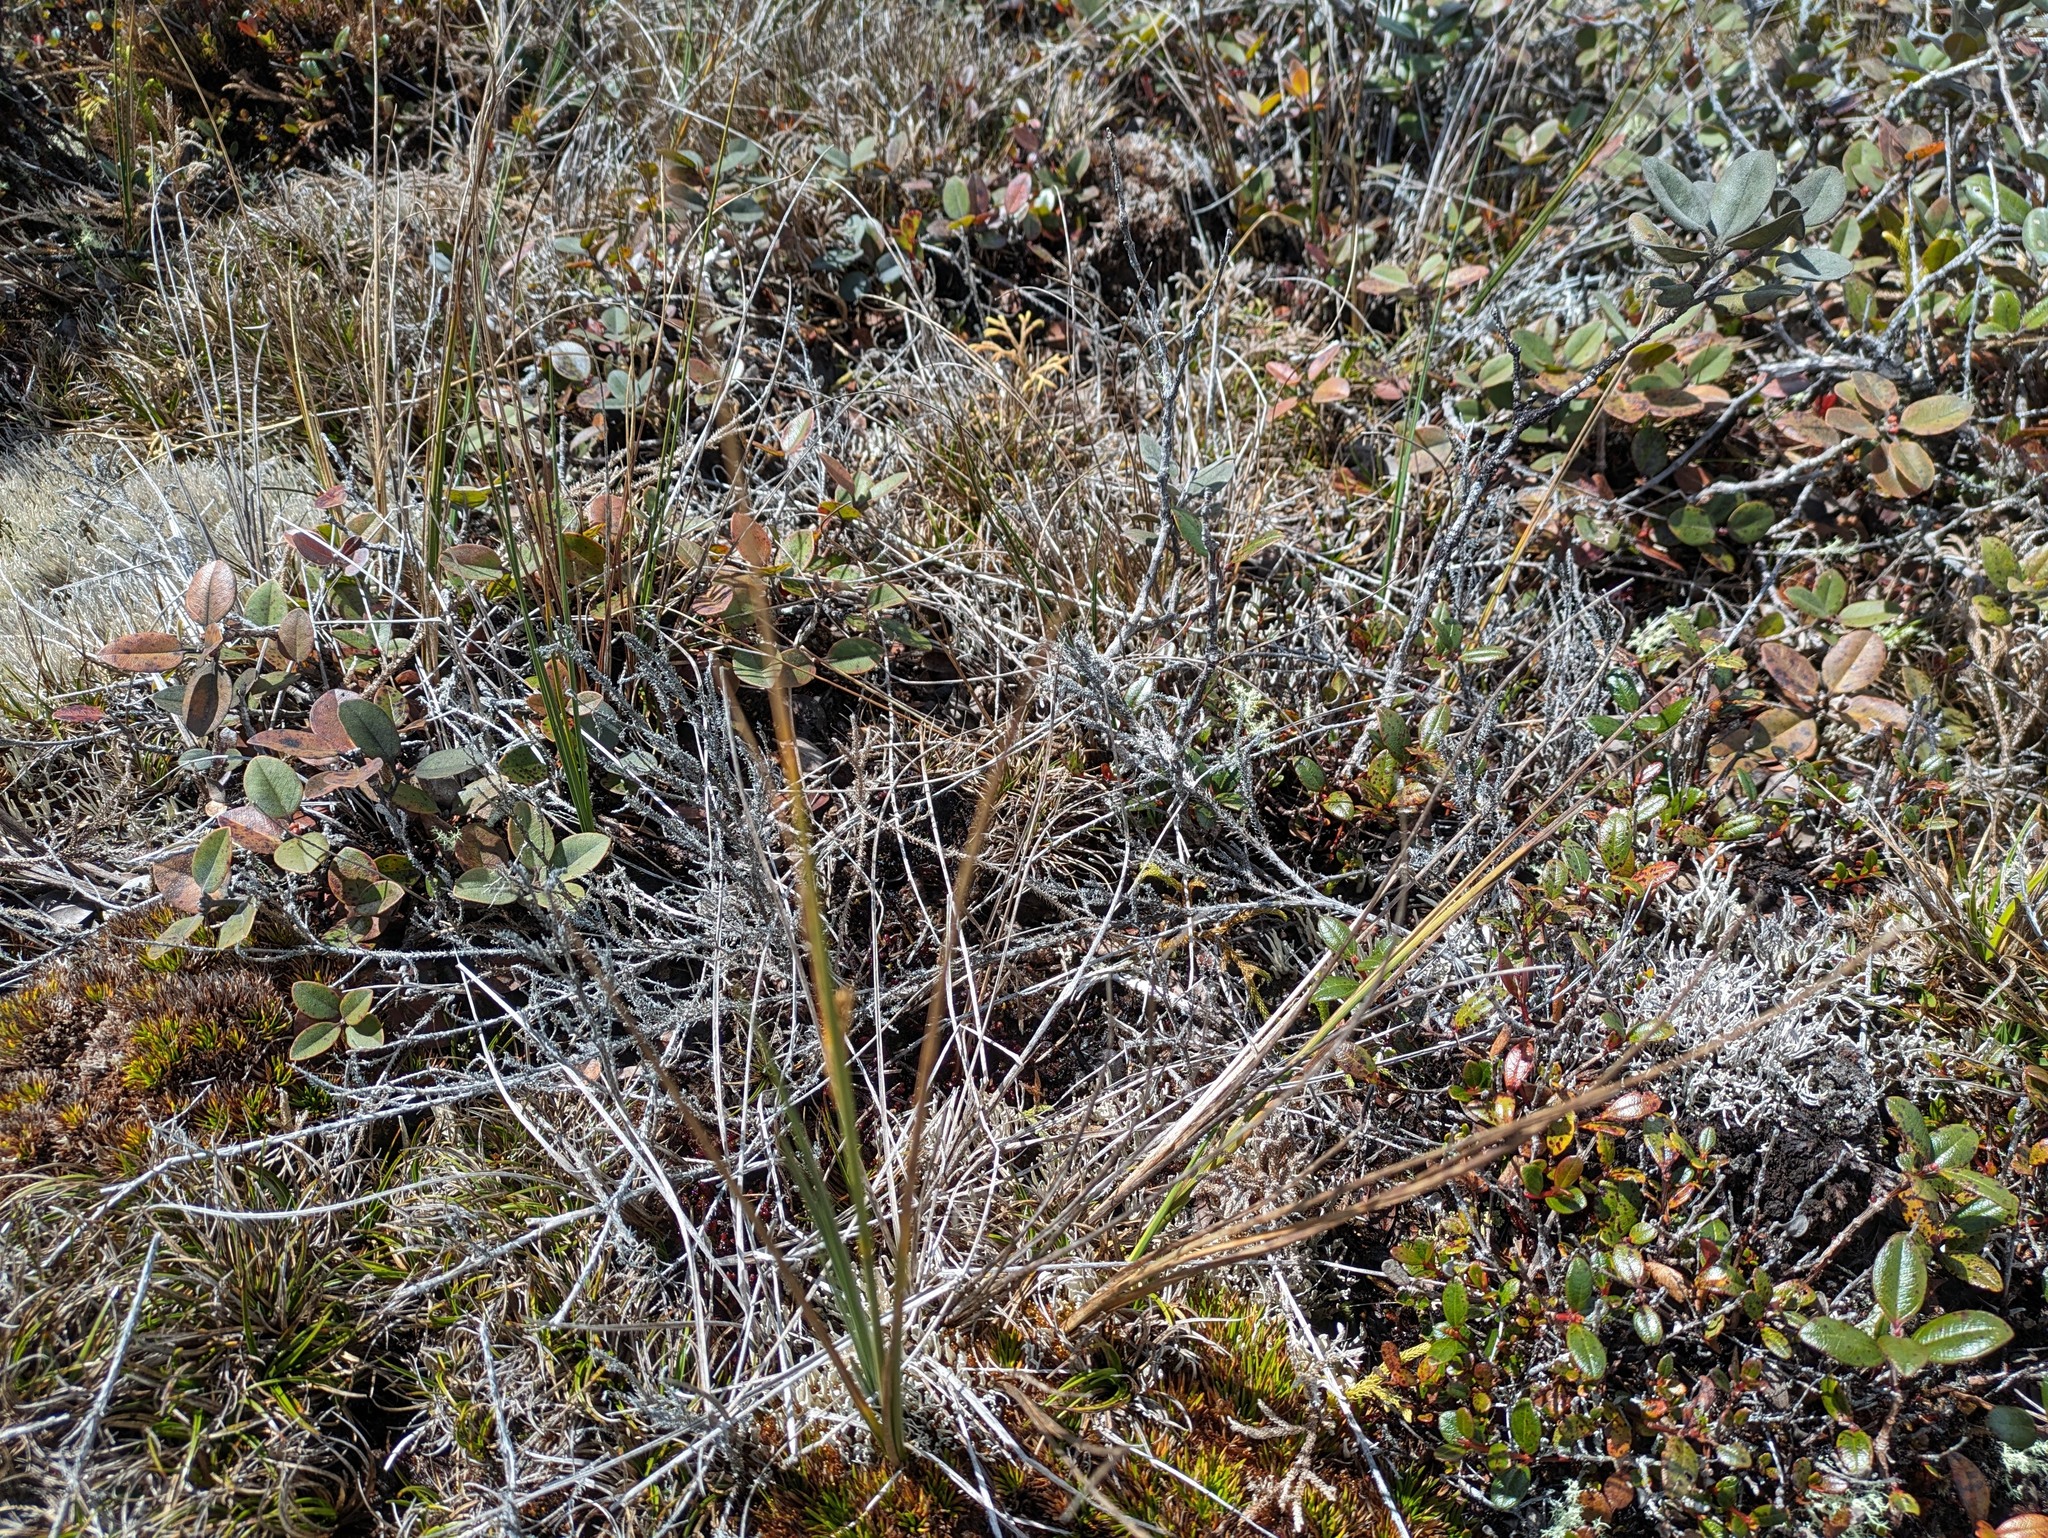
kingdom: Plantae
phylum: Tracheophyta
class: Liliopsida
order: Poales
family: Cyperaceae
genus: Carex
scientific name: Carex montis-eeka
